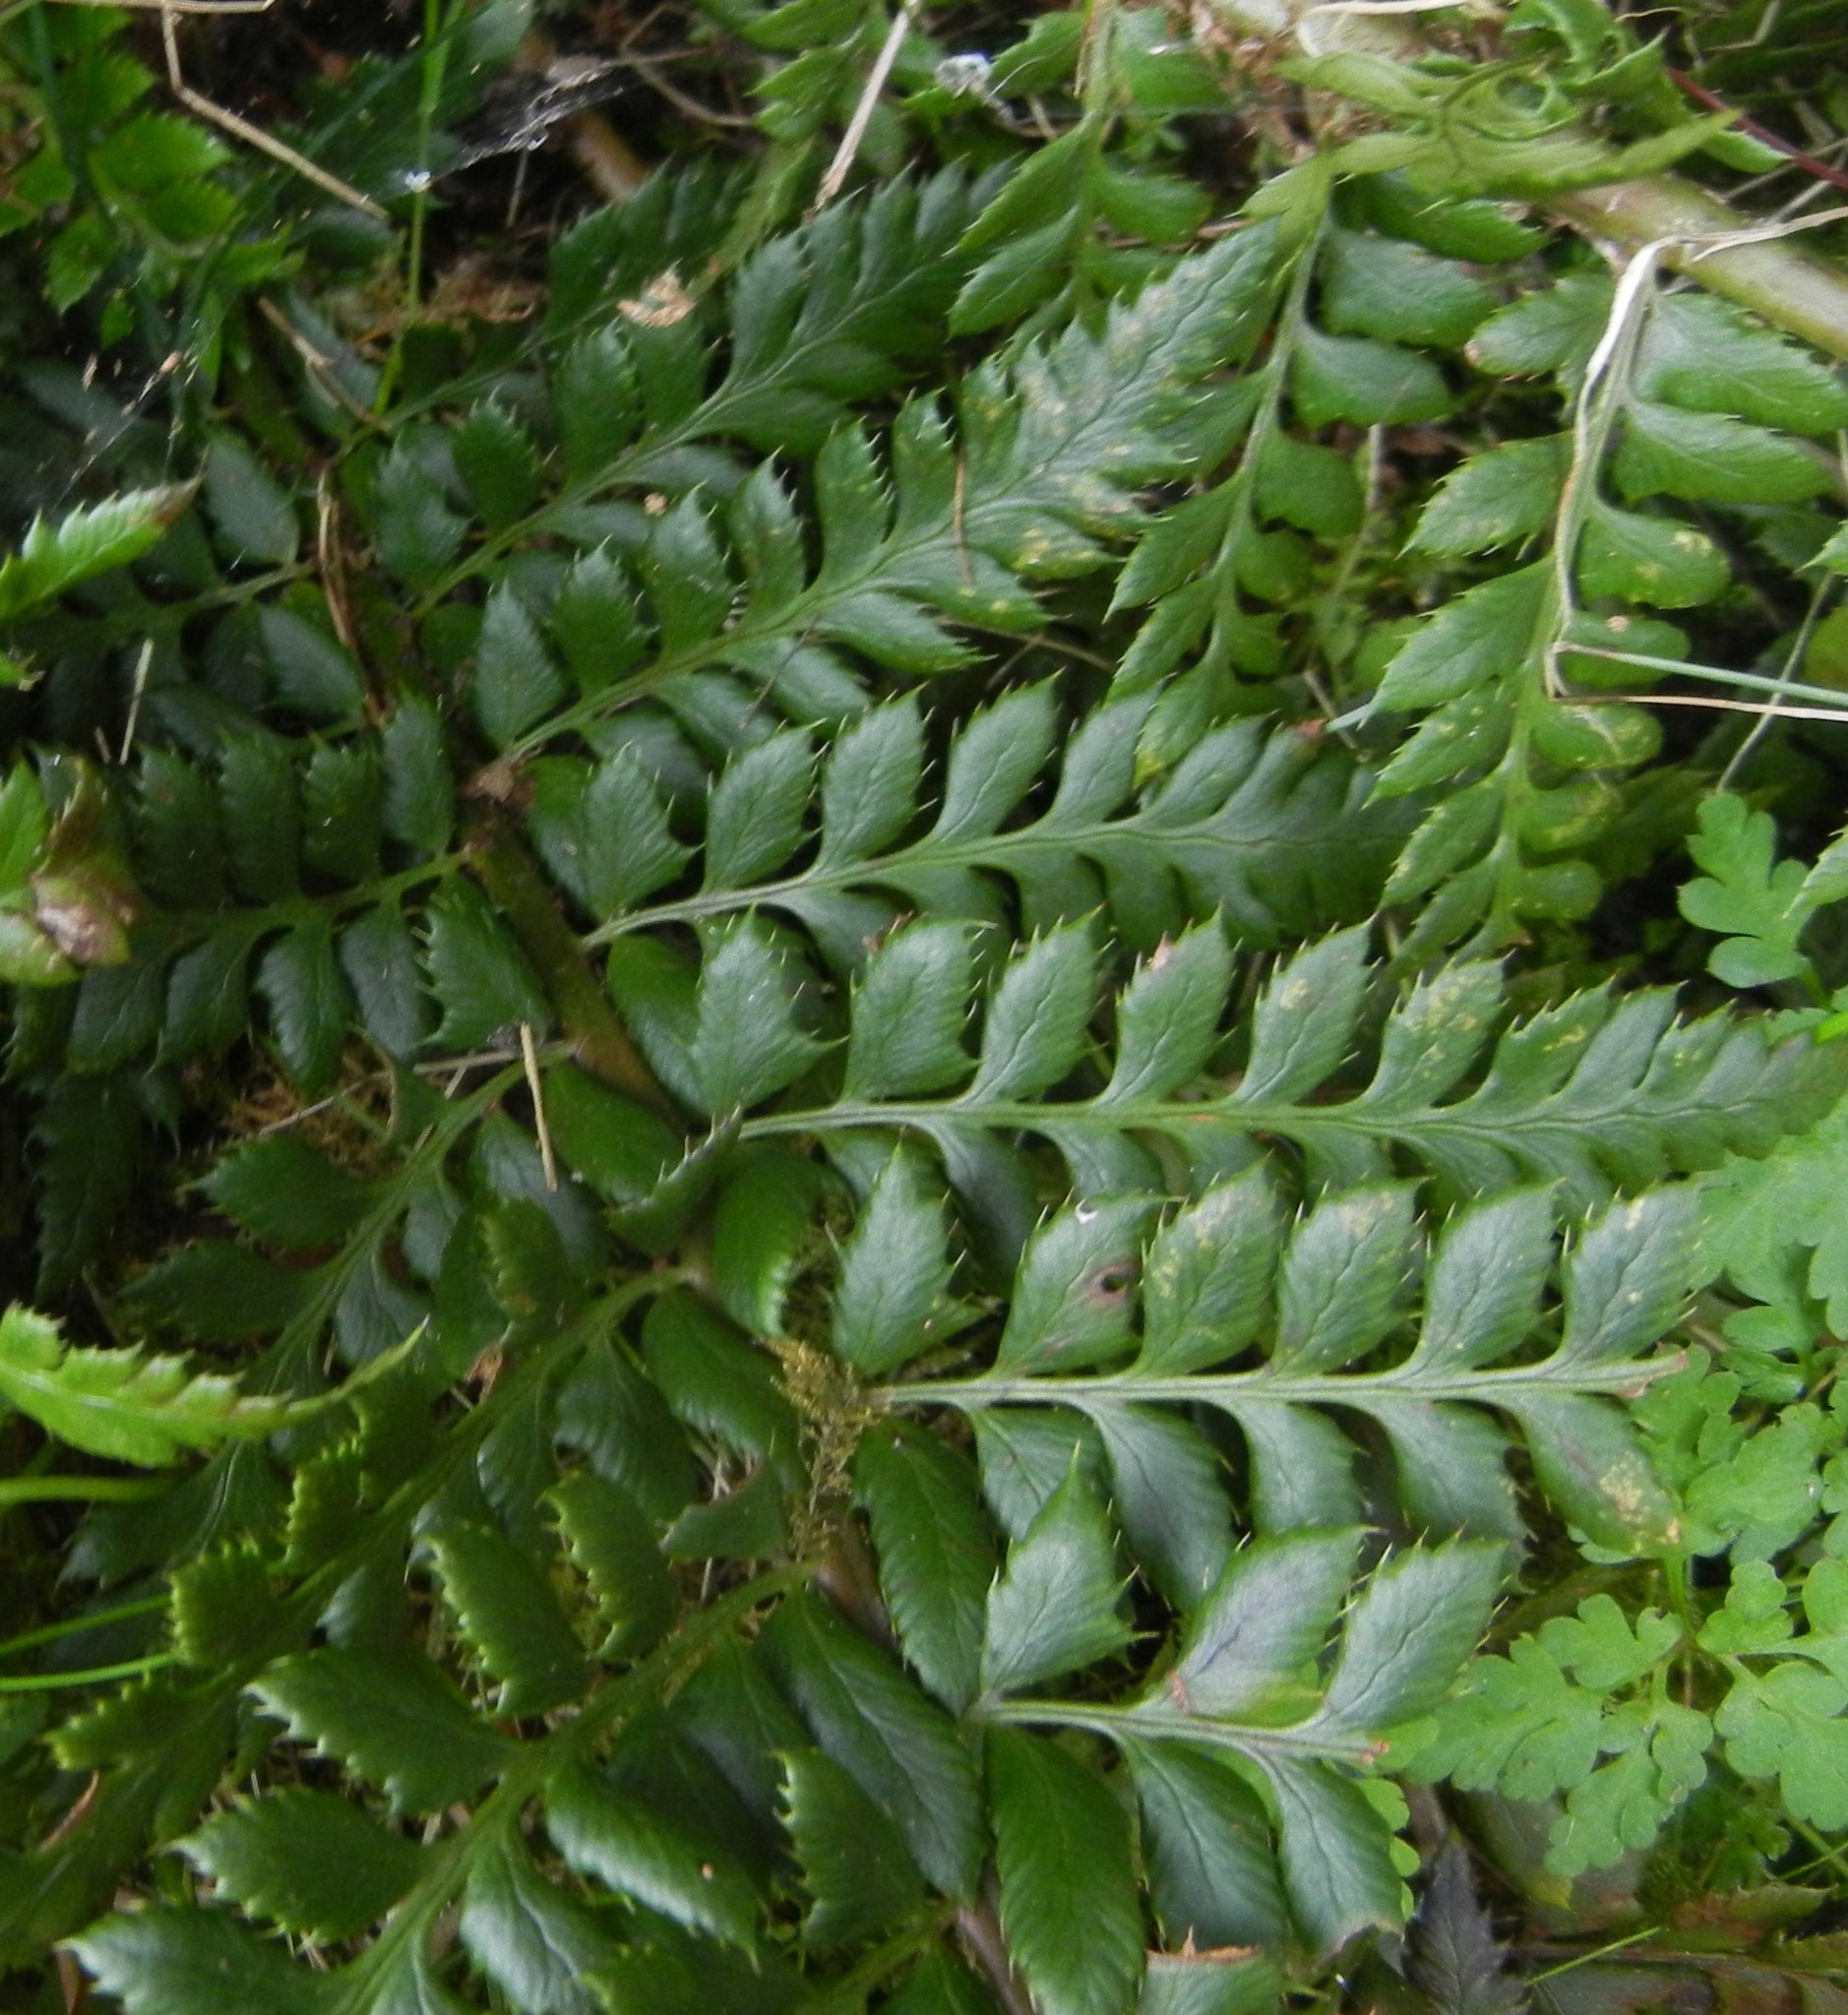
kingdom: Plantae
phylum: Tracheophyta
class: Polypodiopsida
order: Polypodiales
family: Dryopteridaceae
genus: Polystichum
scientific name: Polystichum aculeatum
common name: Hard shield-fern
